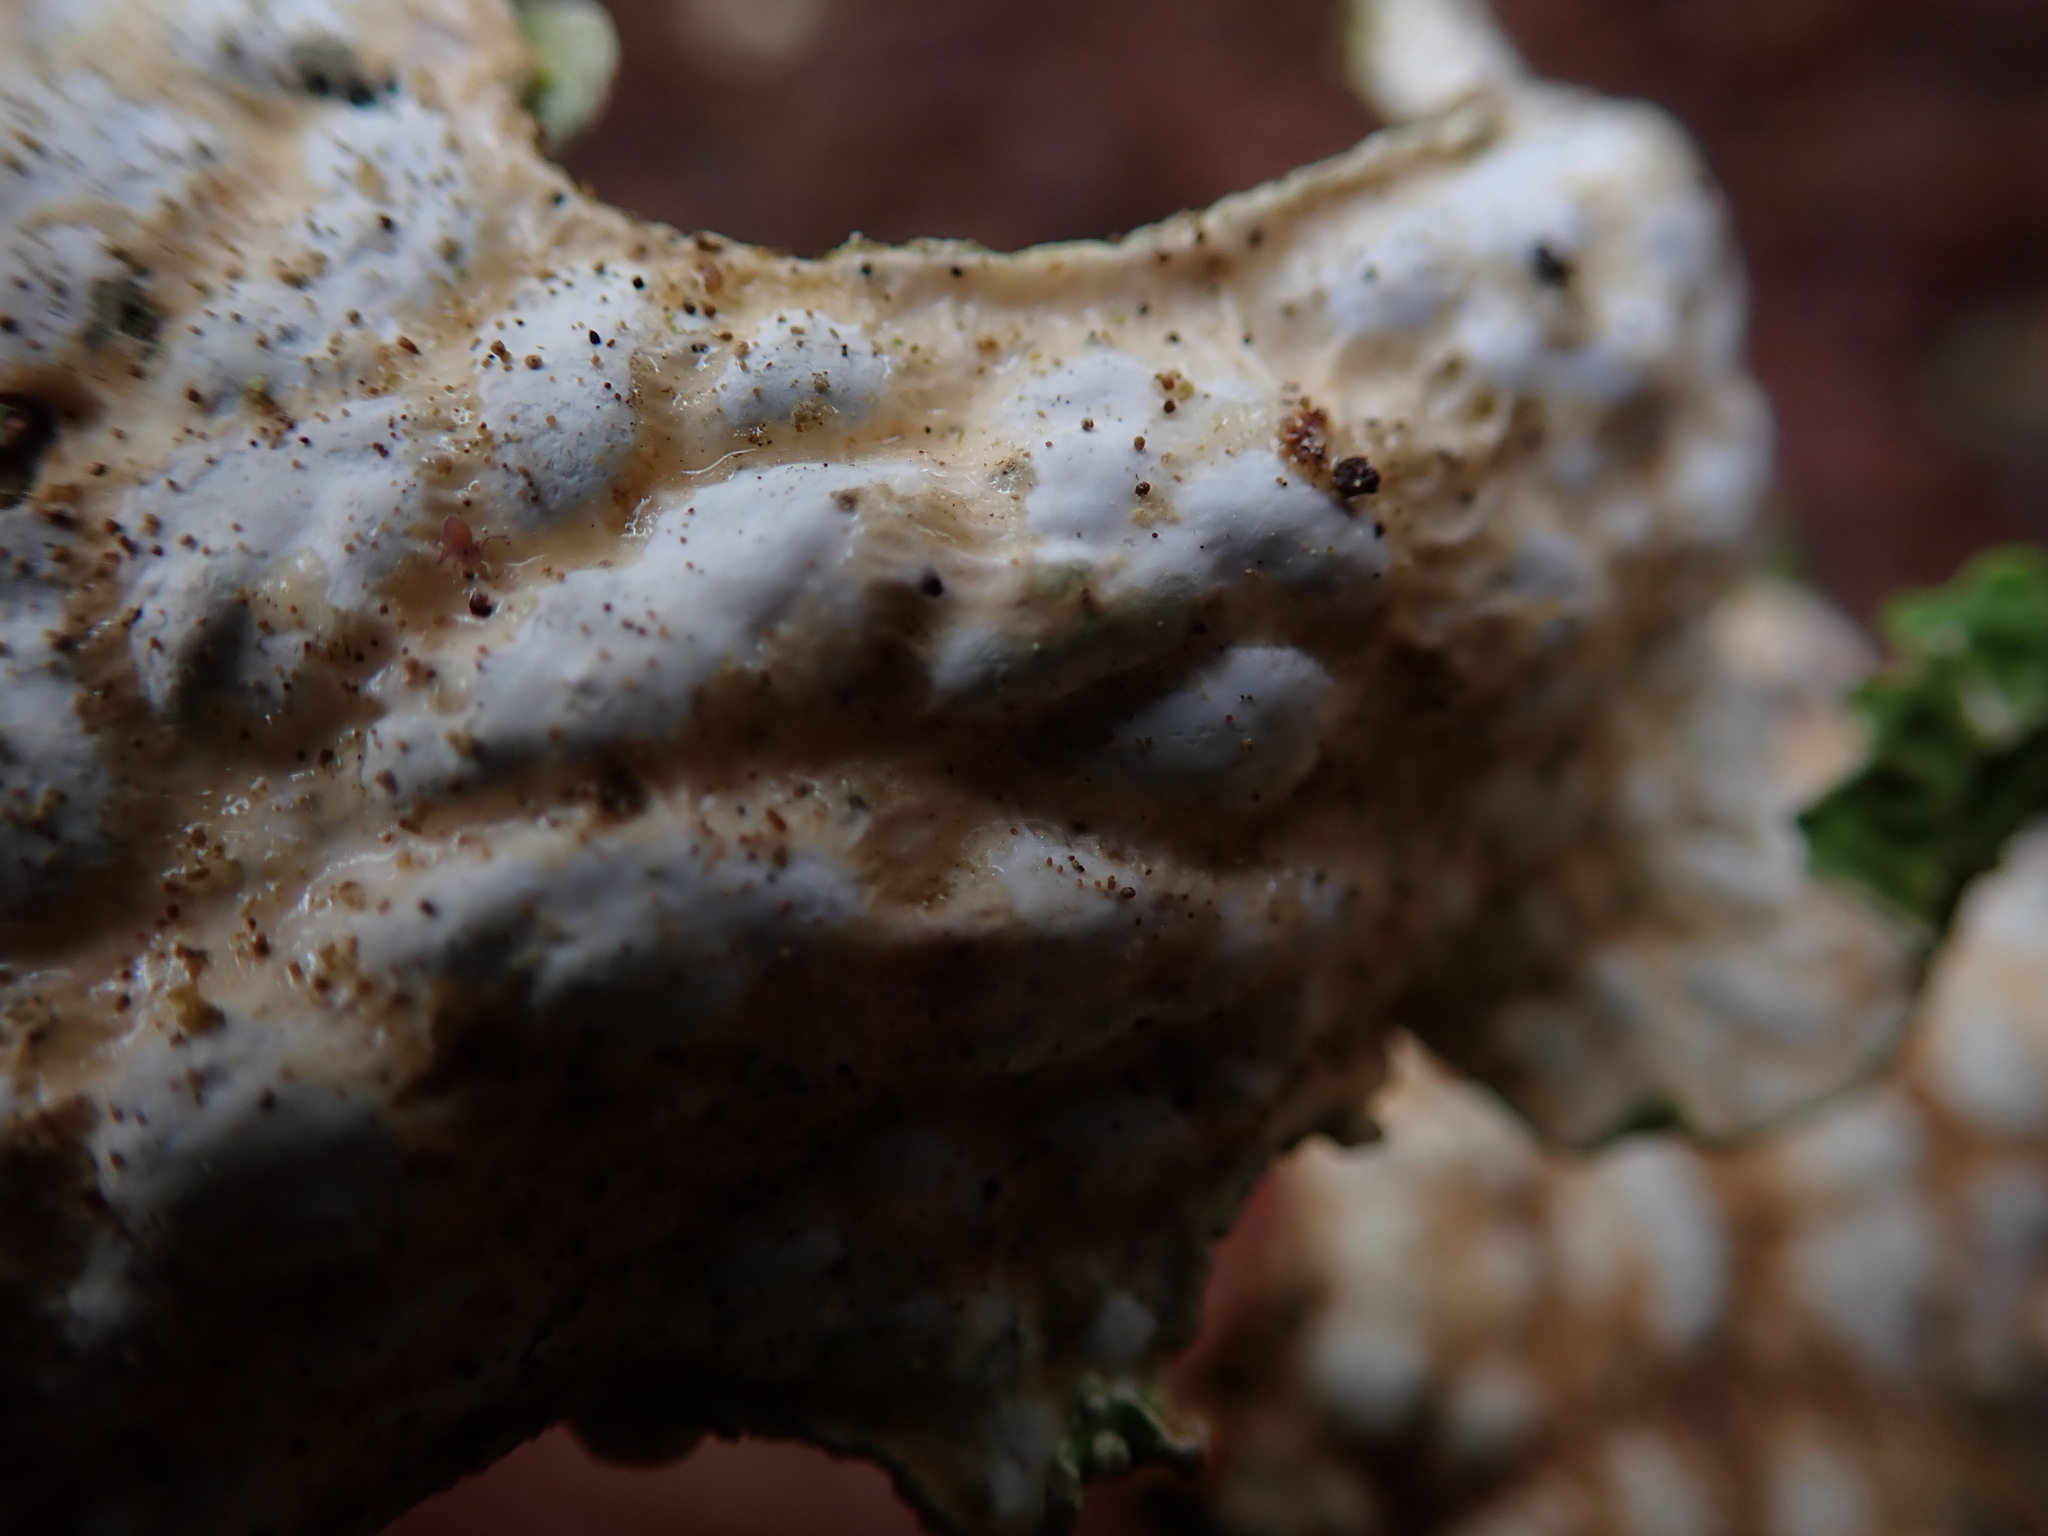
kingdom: Fungi
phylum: Ascomycota
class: Lecanoromycetes
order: Peltigerales
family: Lobariaceae
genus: Lobaria
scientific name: Lobaria pulmonaria
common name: Lungwort
